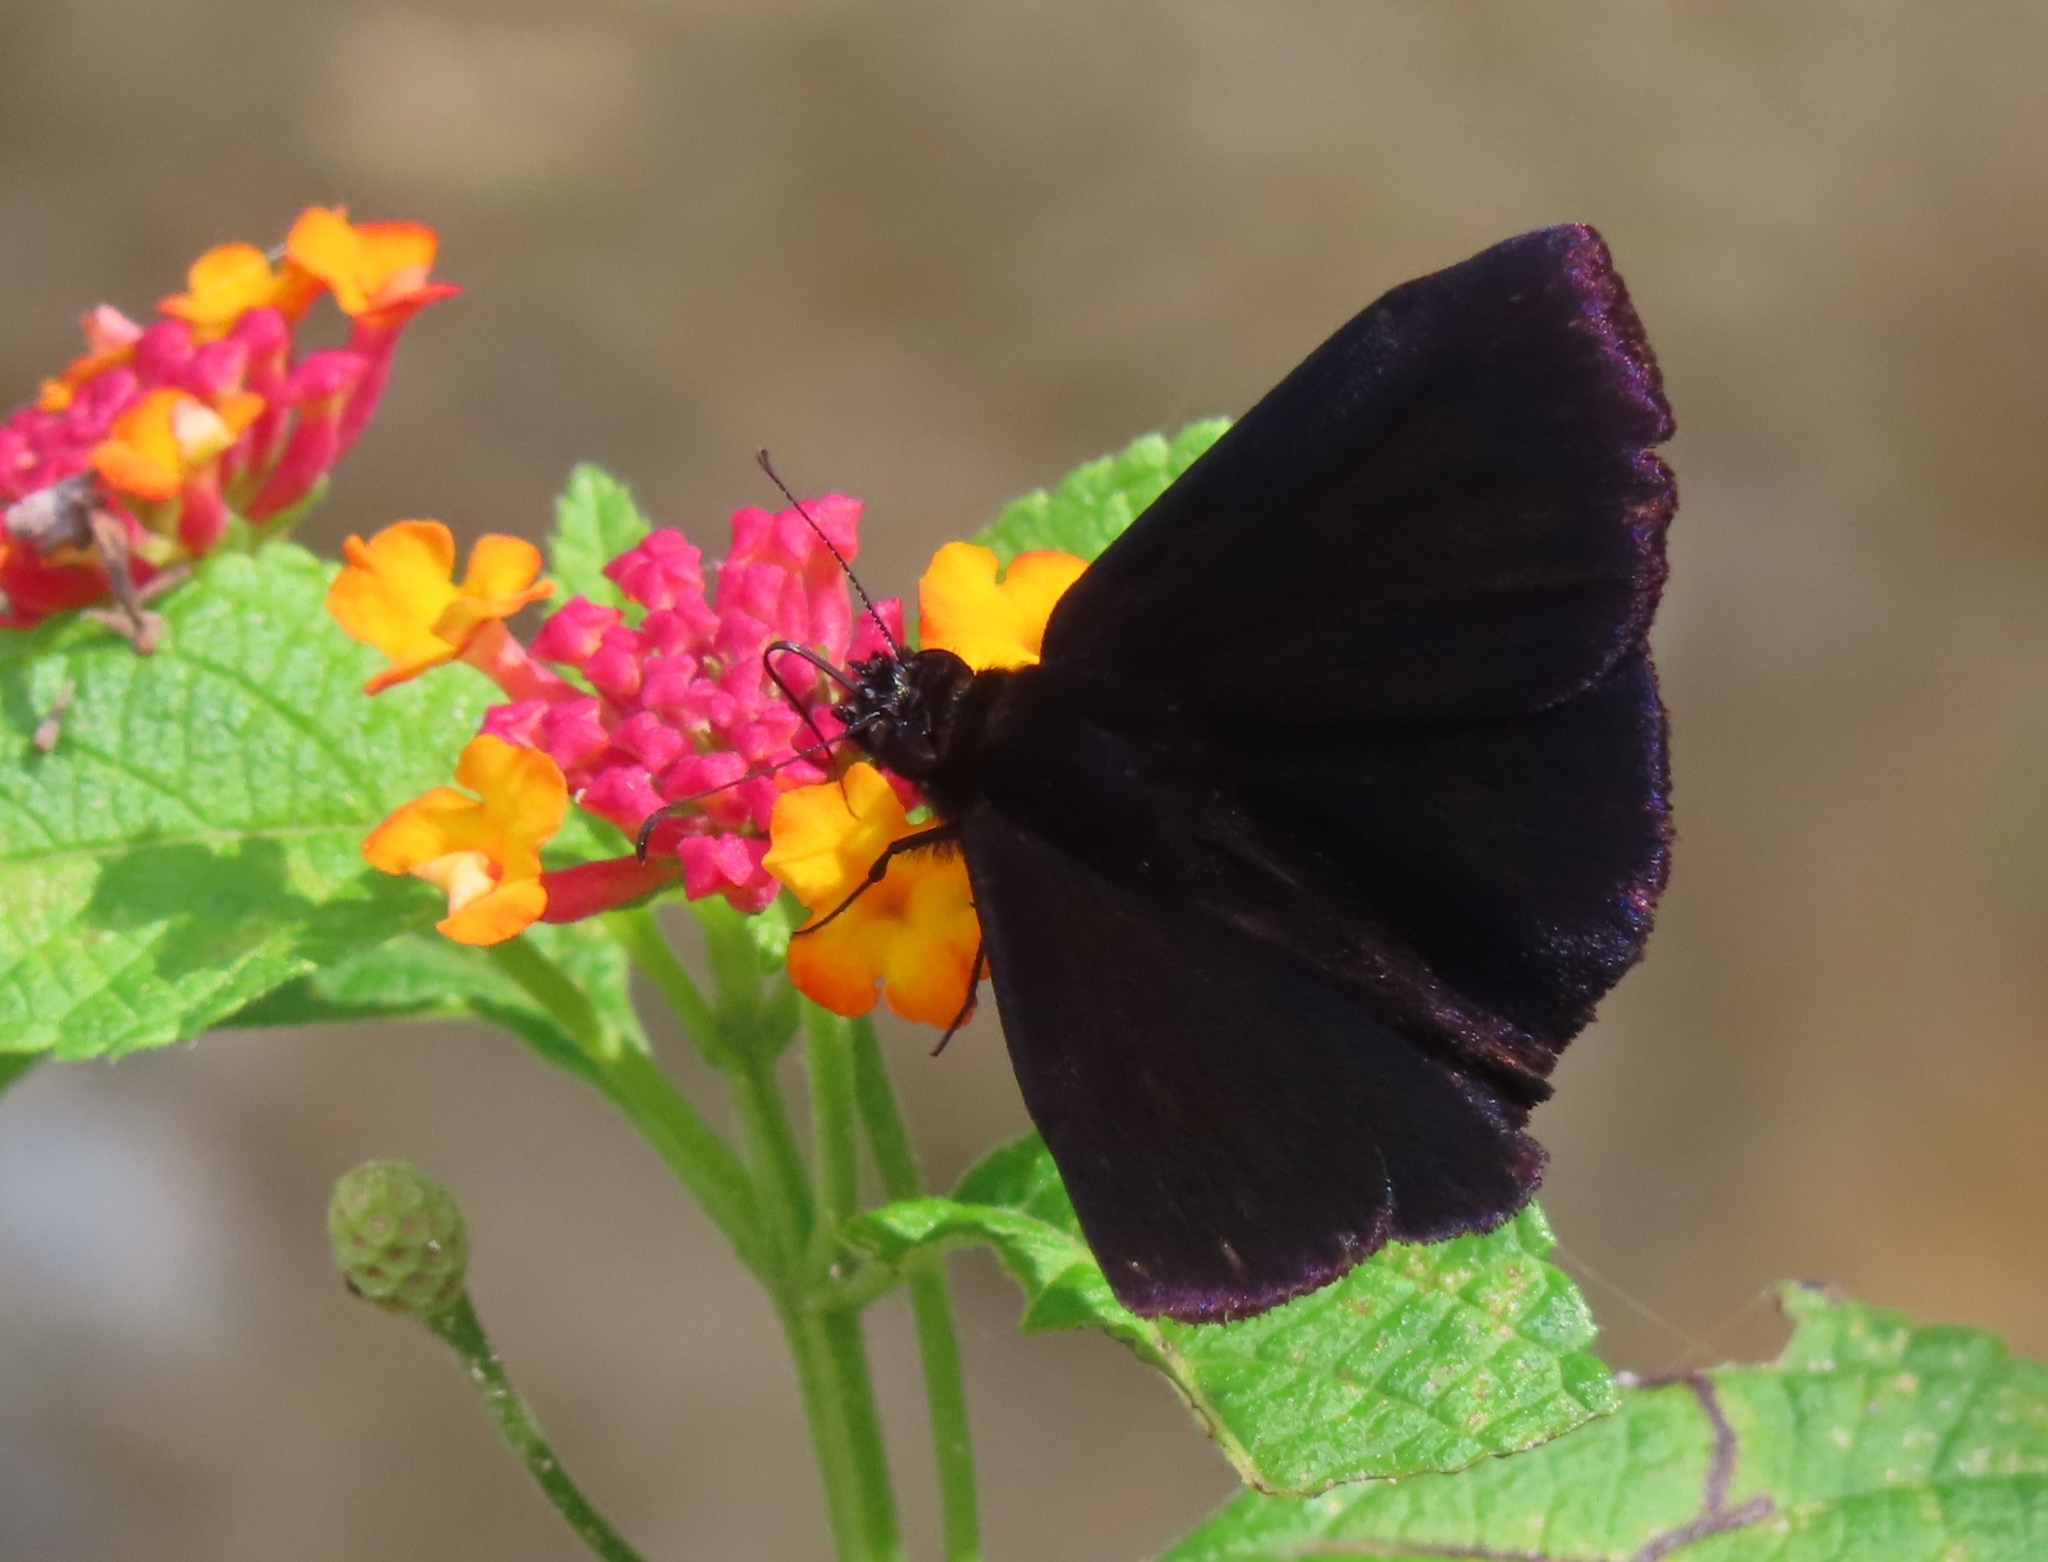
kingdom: Animalia
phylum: Arthropoda
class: Insecta
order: Lepidoptera
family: Hesperiidae
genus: Ephyriades
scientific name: Ephyriades arcas
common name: Caribbean duskywing
